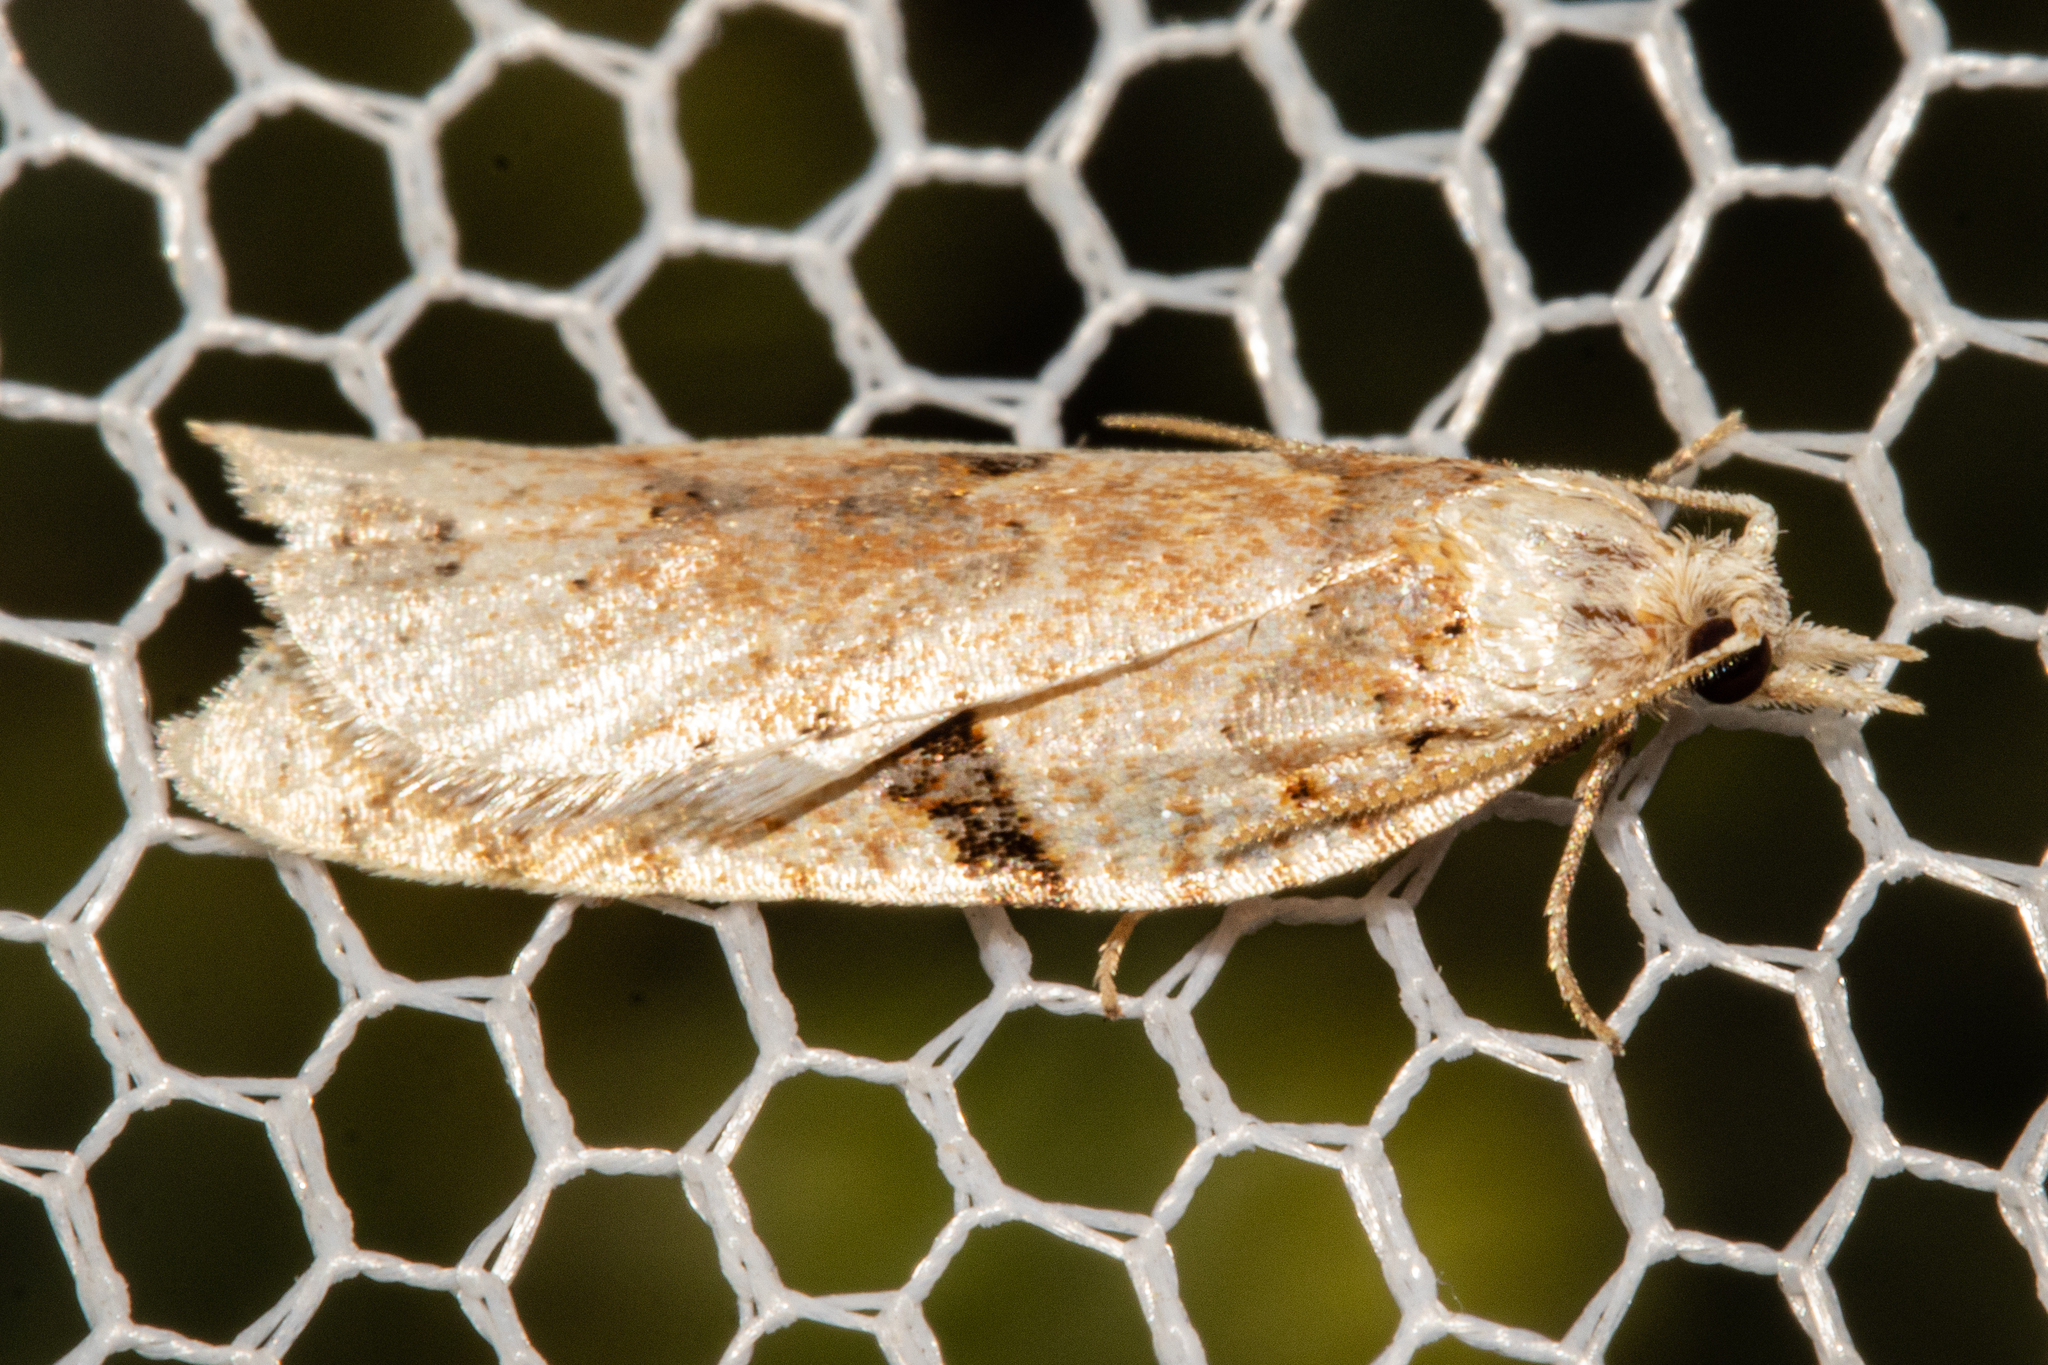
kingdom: Animalia
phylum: Arthropoda
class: Insecta
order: Lepidoptera
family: Tortricidae
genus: Leucotenes
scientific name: Leucotenes coprosmae
